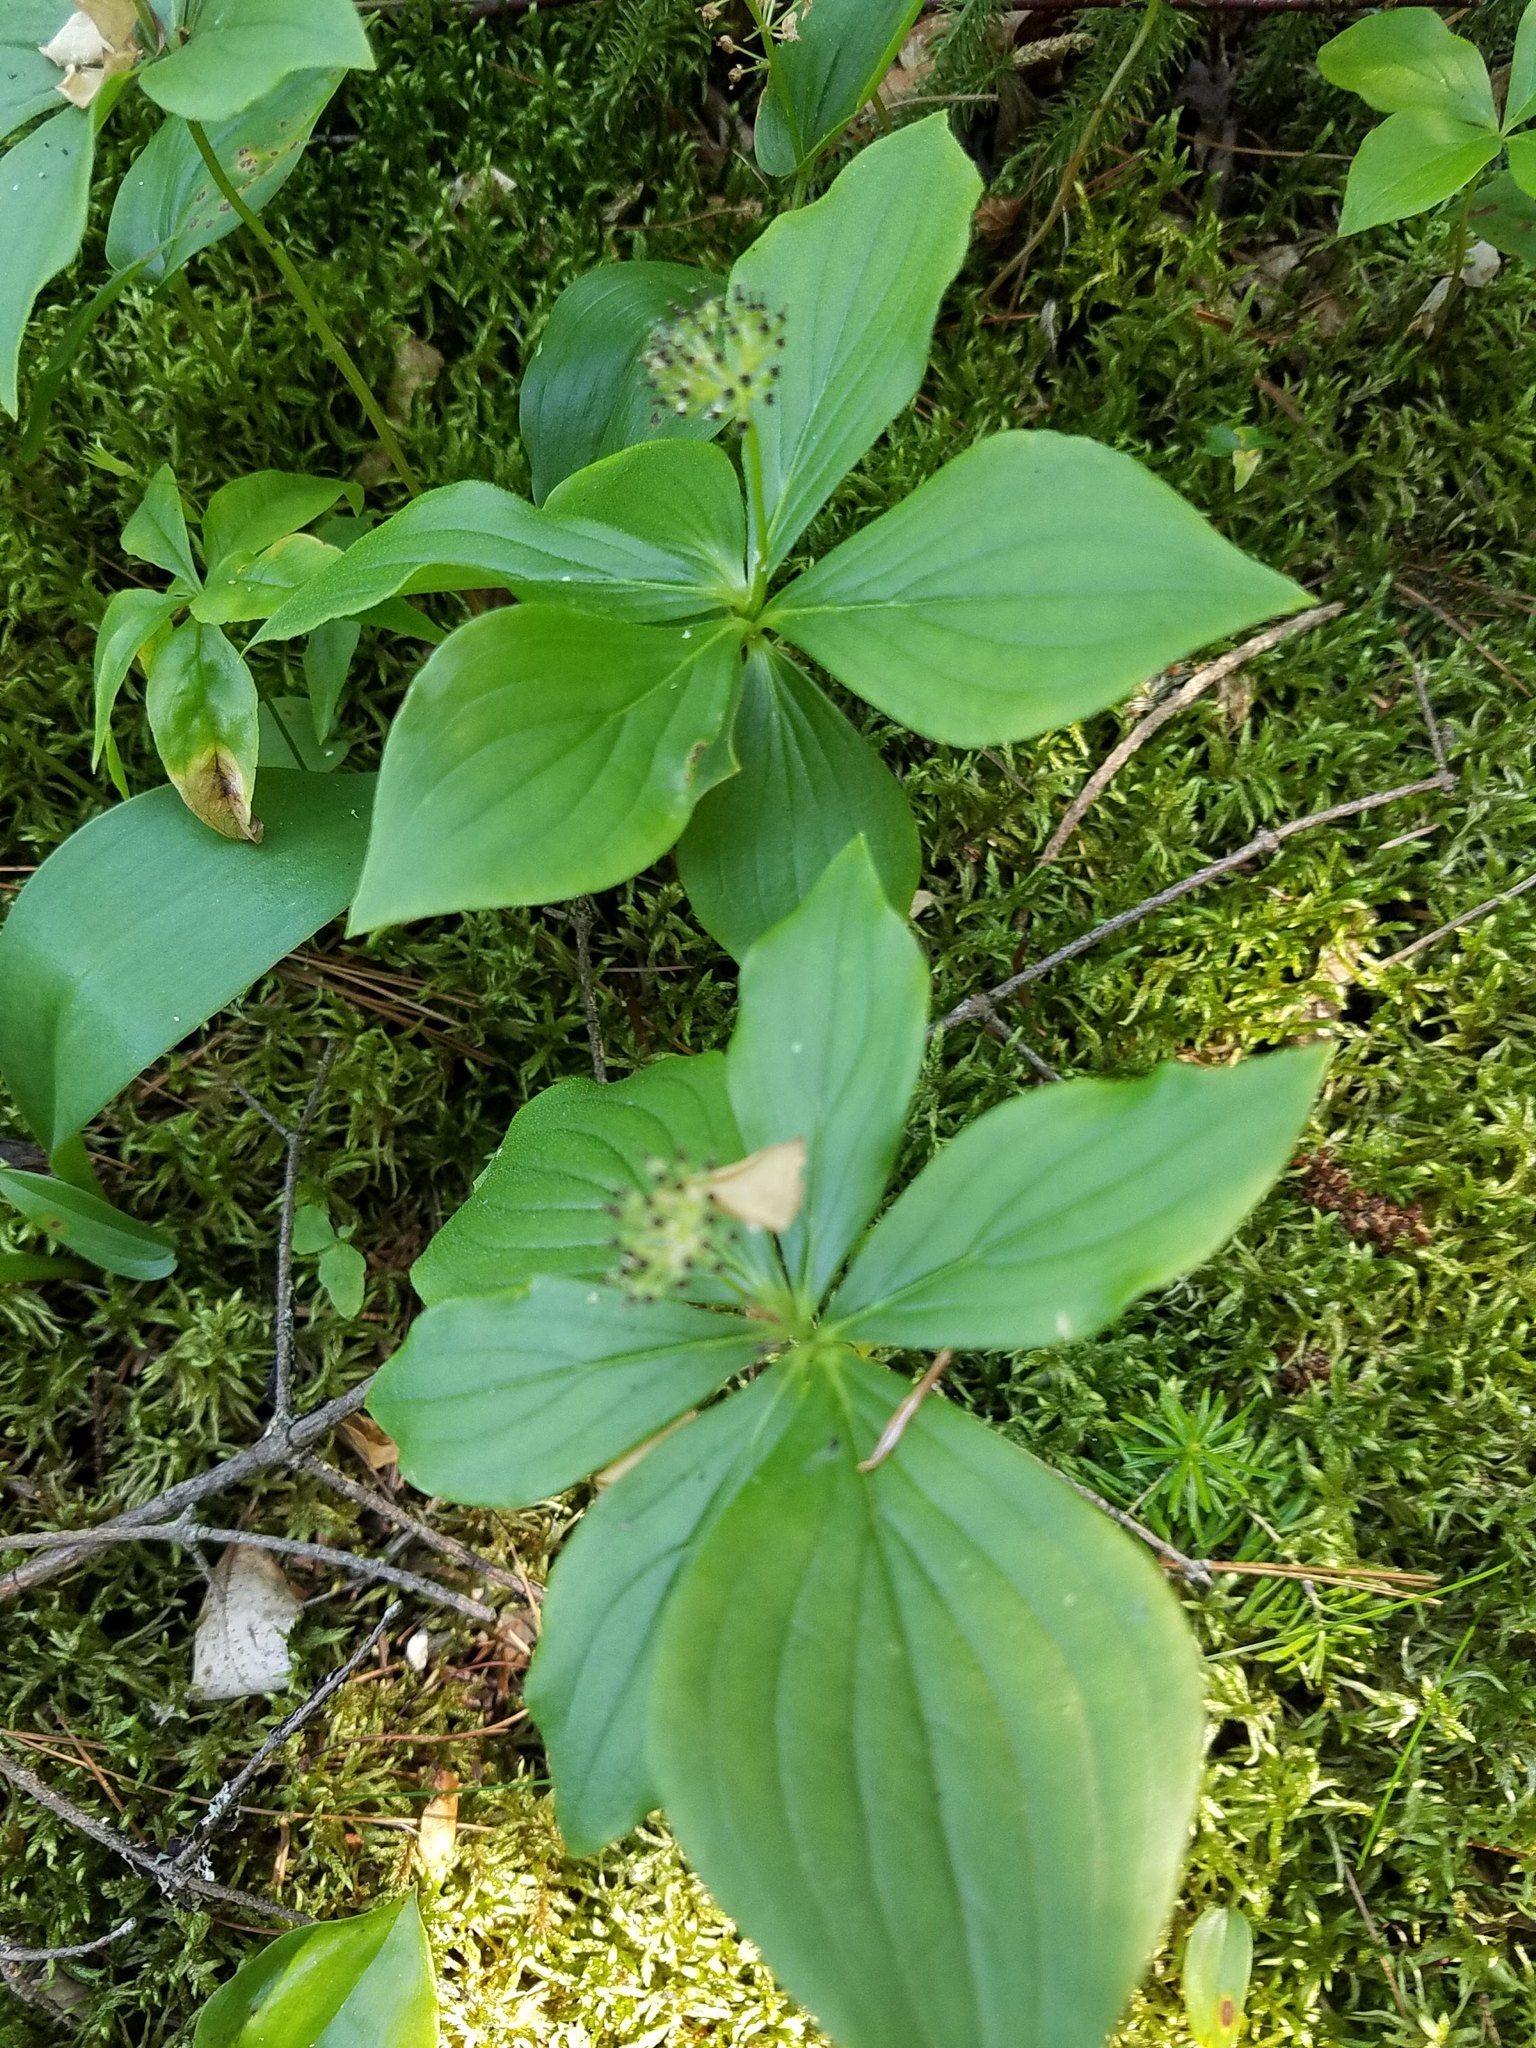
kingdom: Plantae
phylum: Tracheophyta
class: Magnoliopsida
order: Cornales
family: Cornaceae
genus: Cornus
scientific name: Cornus canadensis
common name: Creeping dogwood
